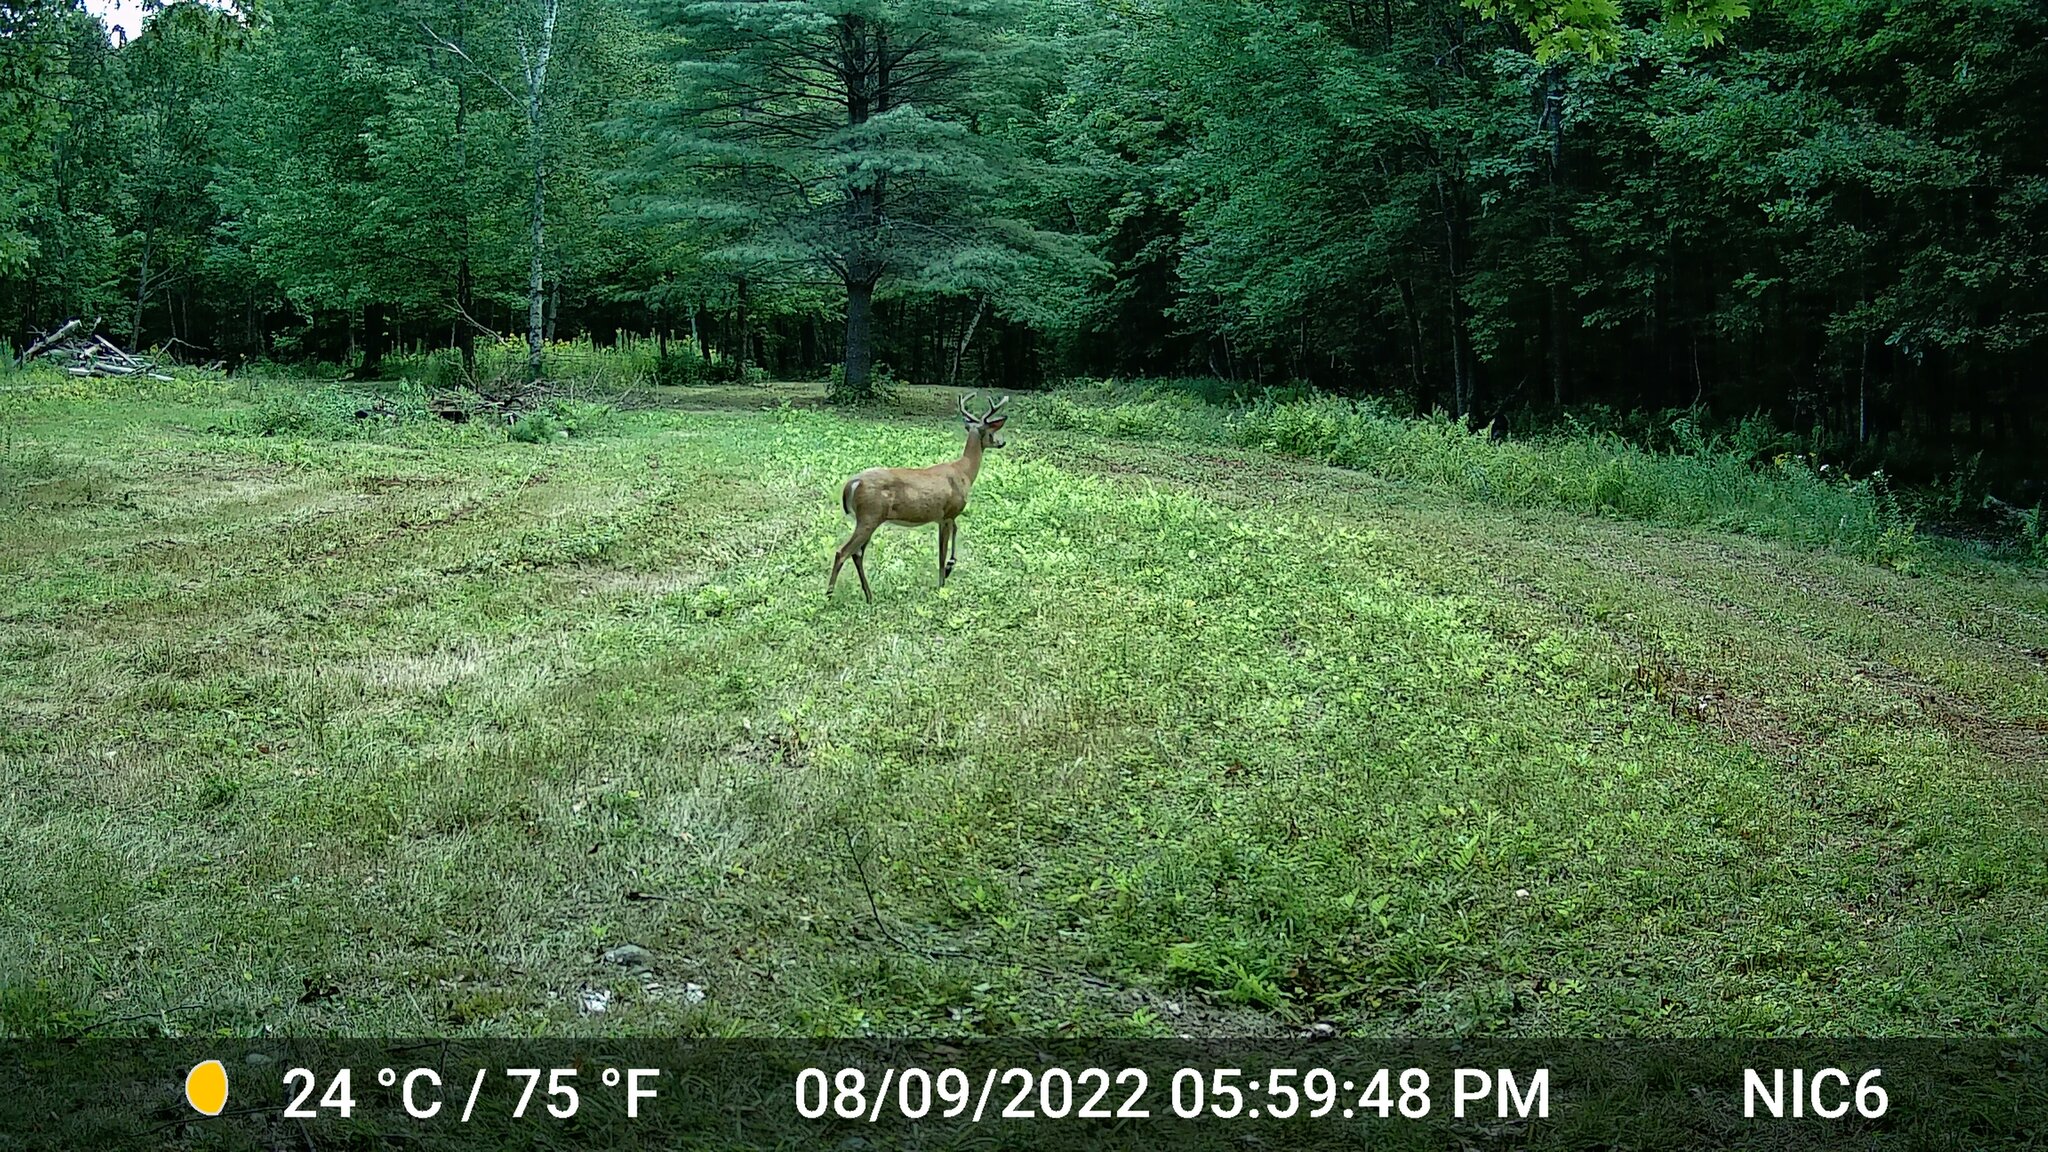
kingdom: Animalia
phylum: Chordata
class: Mammalia
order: Artiodactyla
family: Cervidae
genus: Odocoileus
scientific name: Odocoileus virginianus
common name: White-tailed deer
